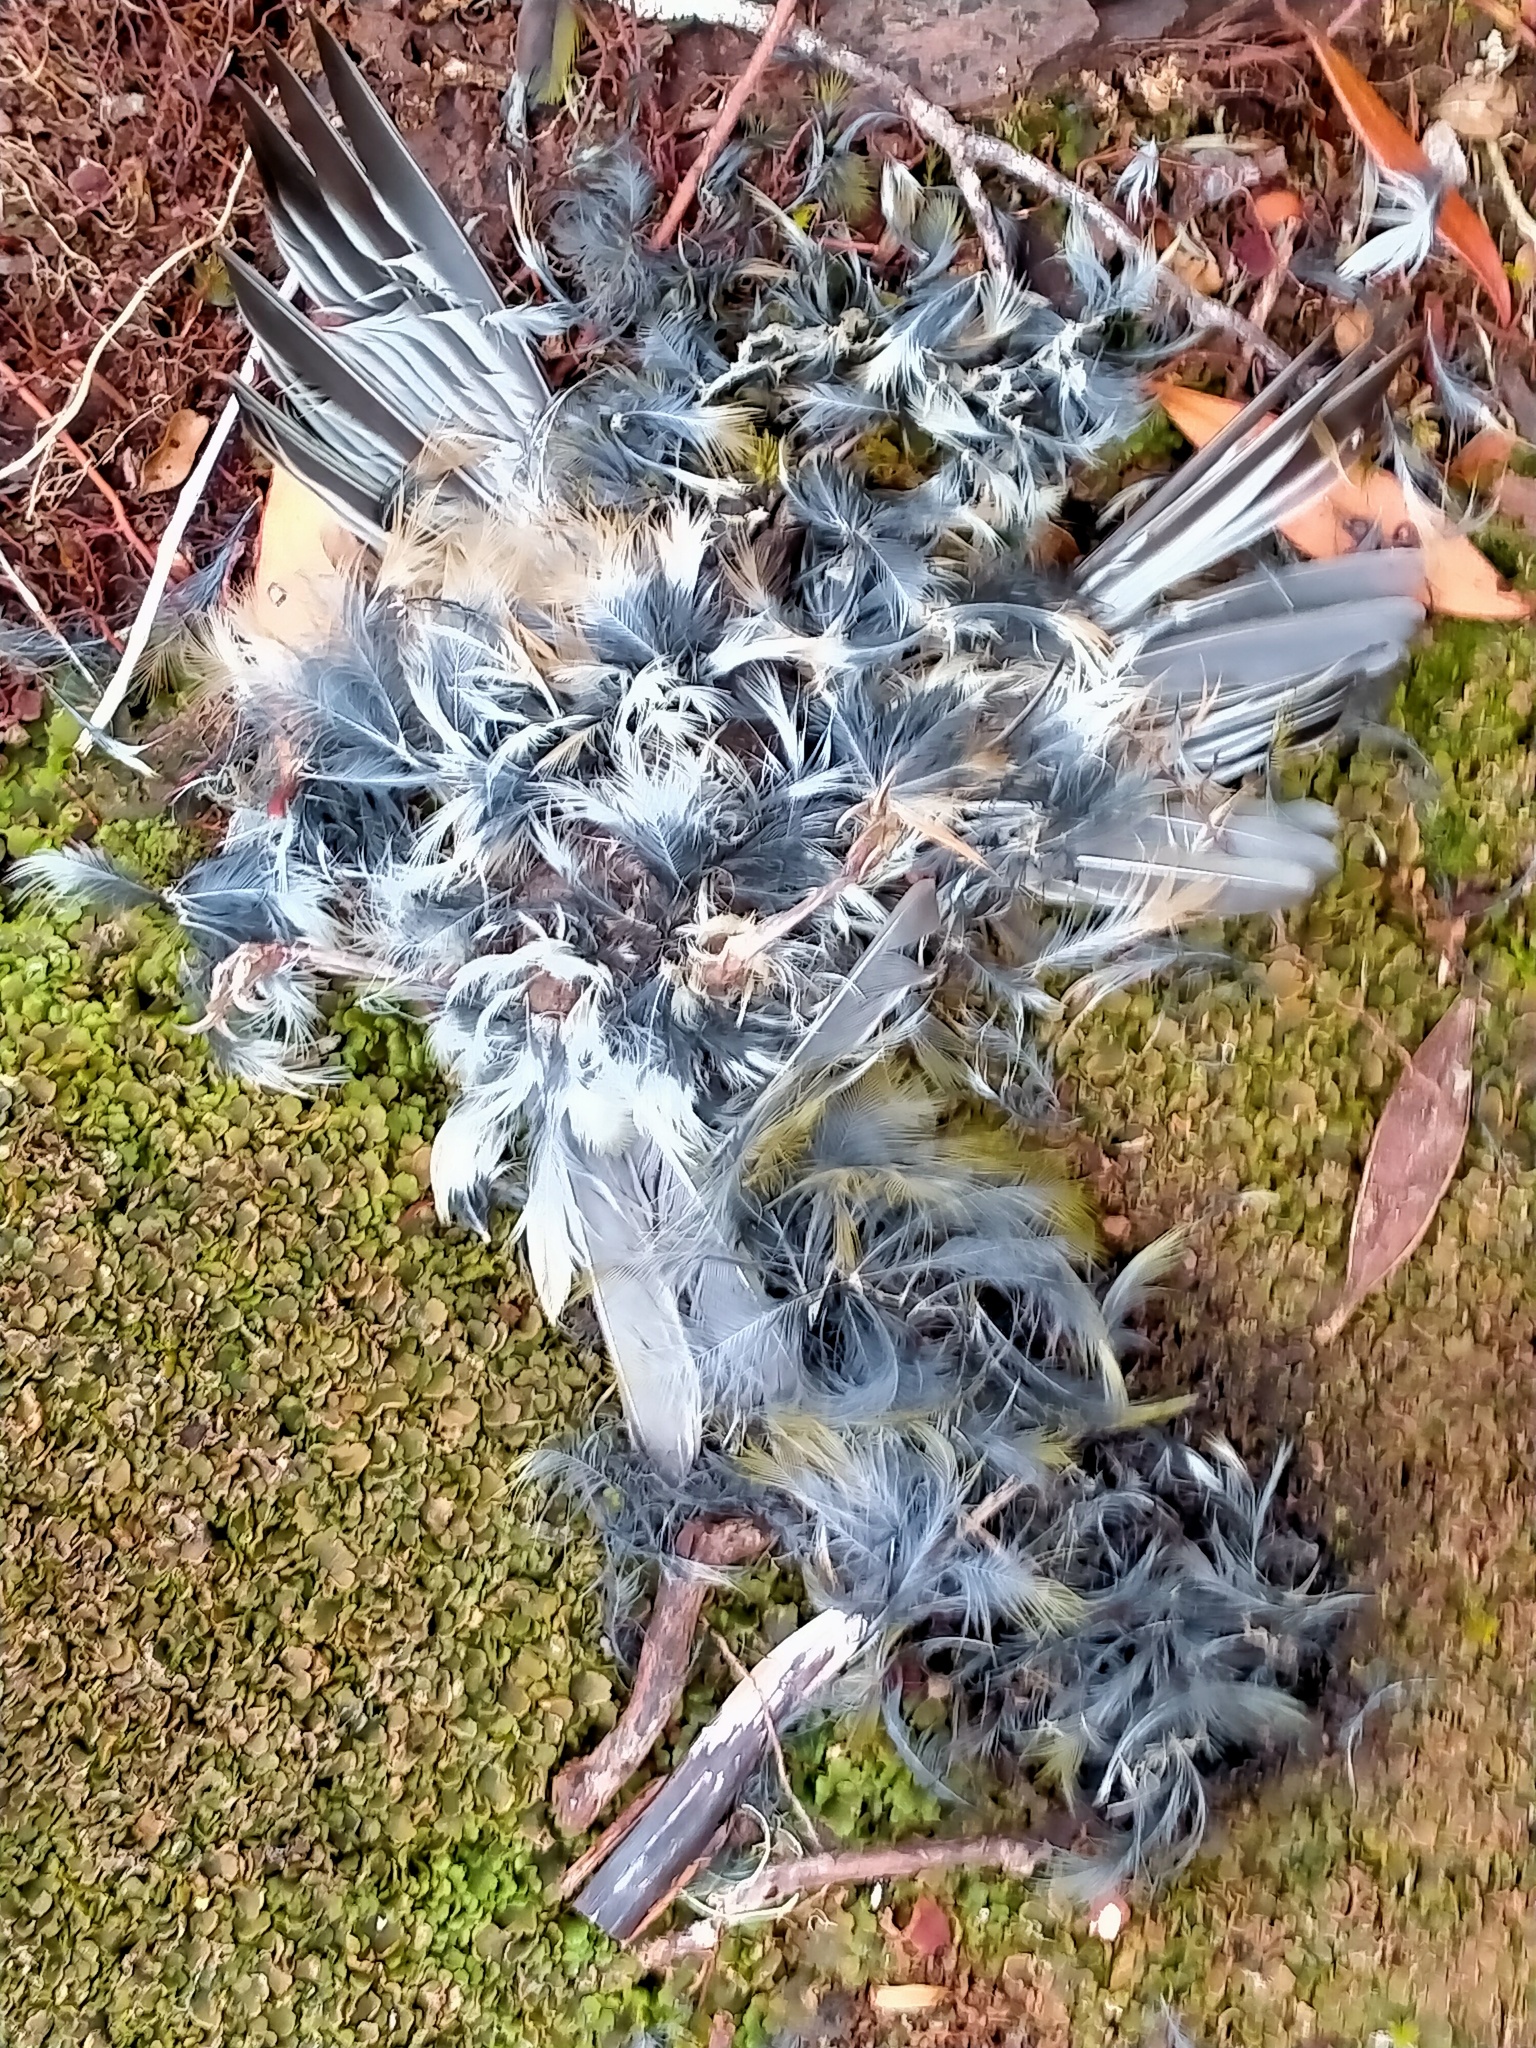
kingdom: Animalia
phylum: Chordata
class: Aves
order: Passeriformes
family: Zosteropidae
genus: Zosterops
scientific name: Zosterops lateralis
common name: Silvereye
